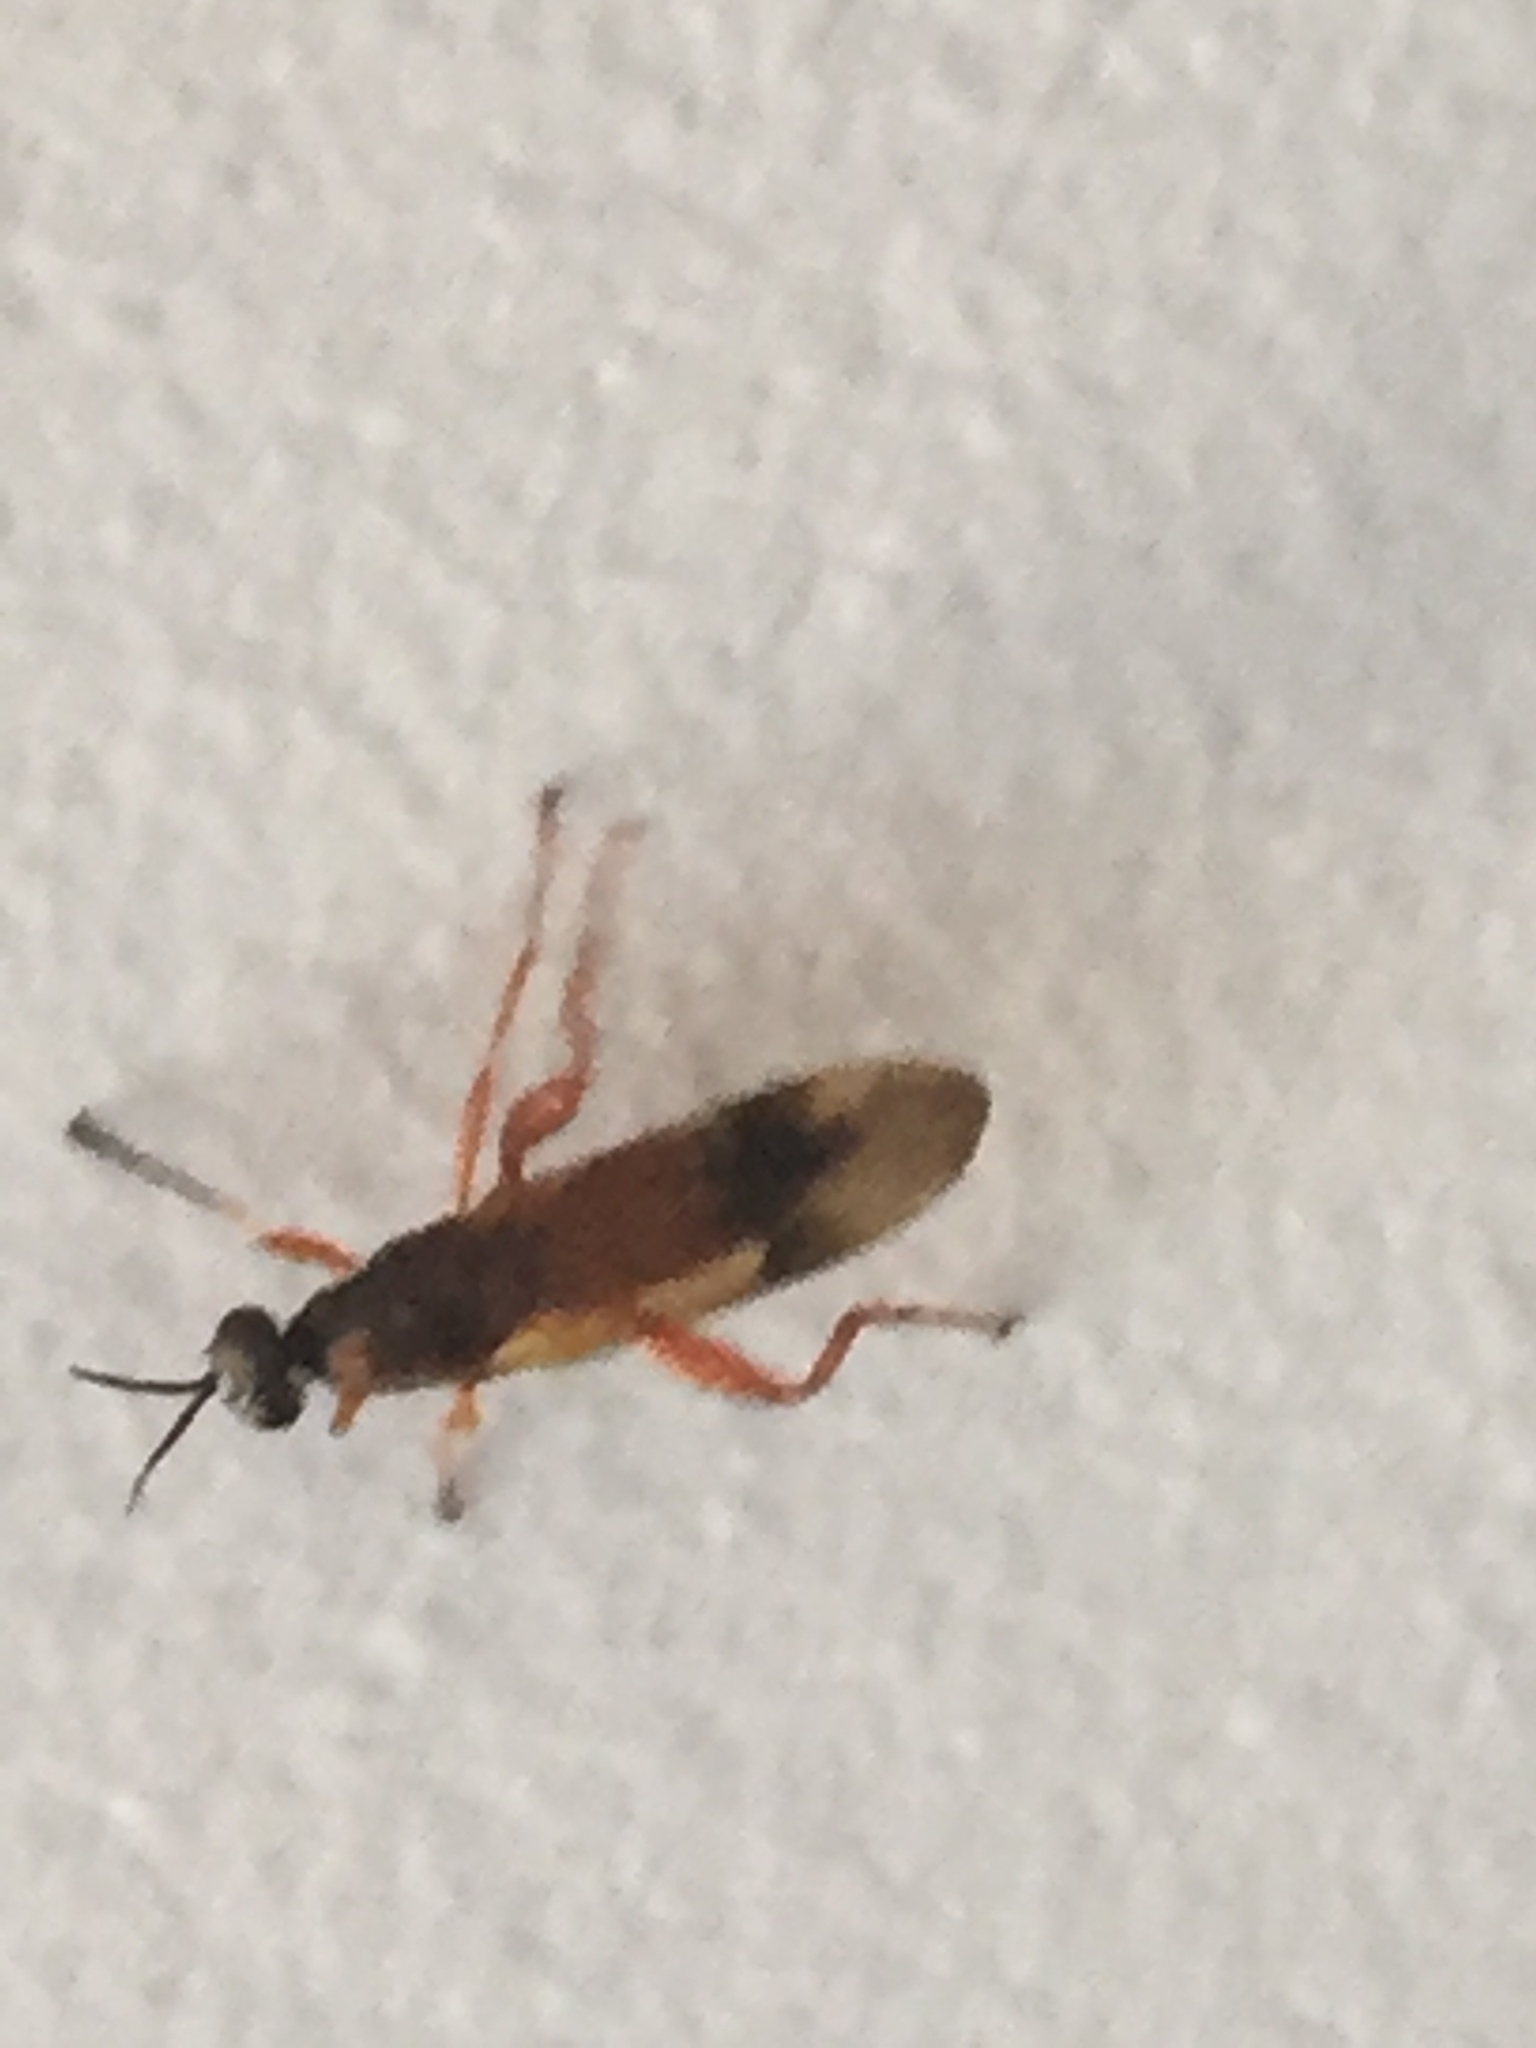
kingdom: Animalia
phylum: Arthropoda
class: Insecta
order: Diptera
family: Stratiomyidae
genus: Benhamyia
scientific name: Benhamyia apicalis
